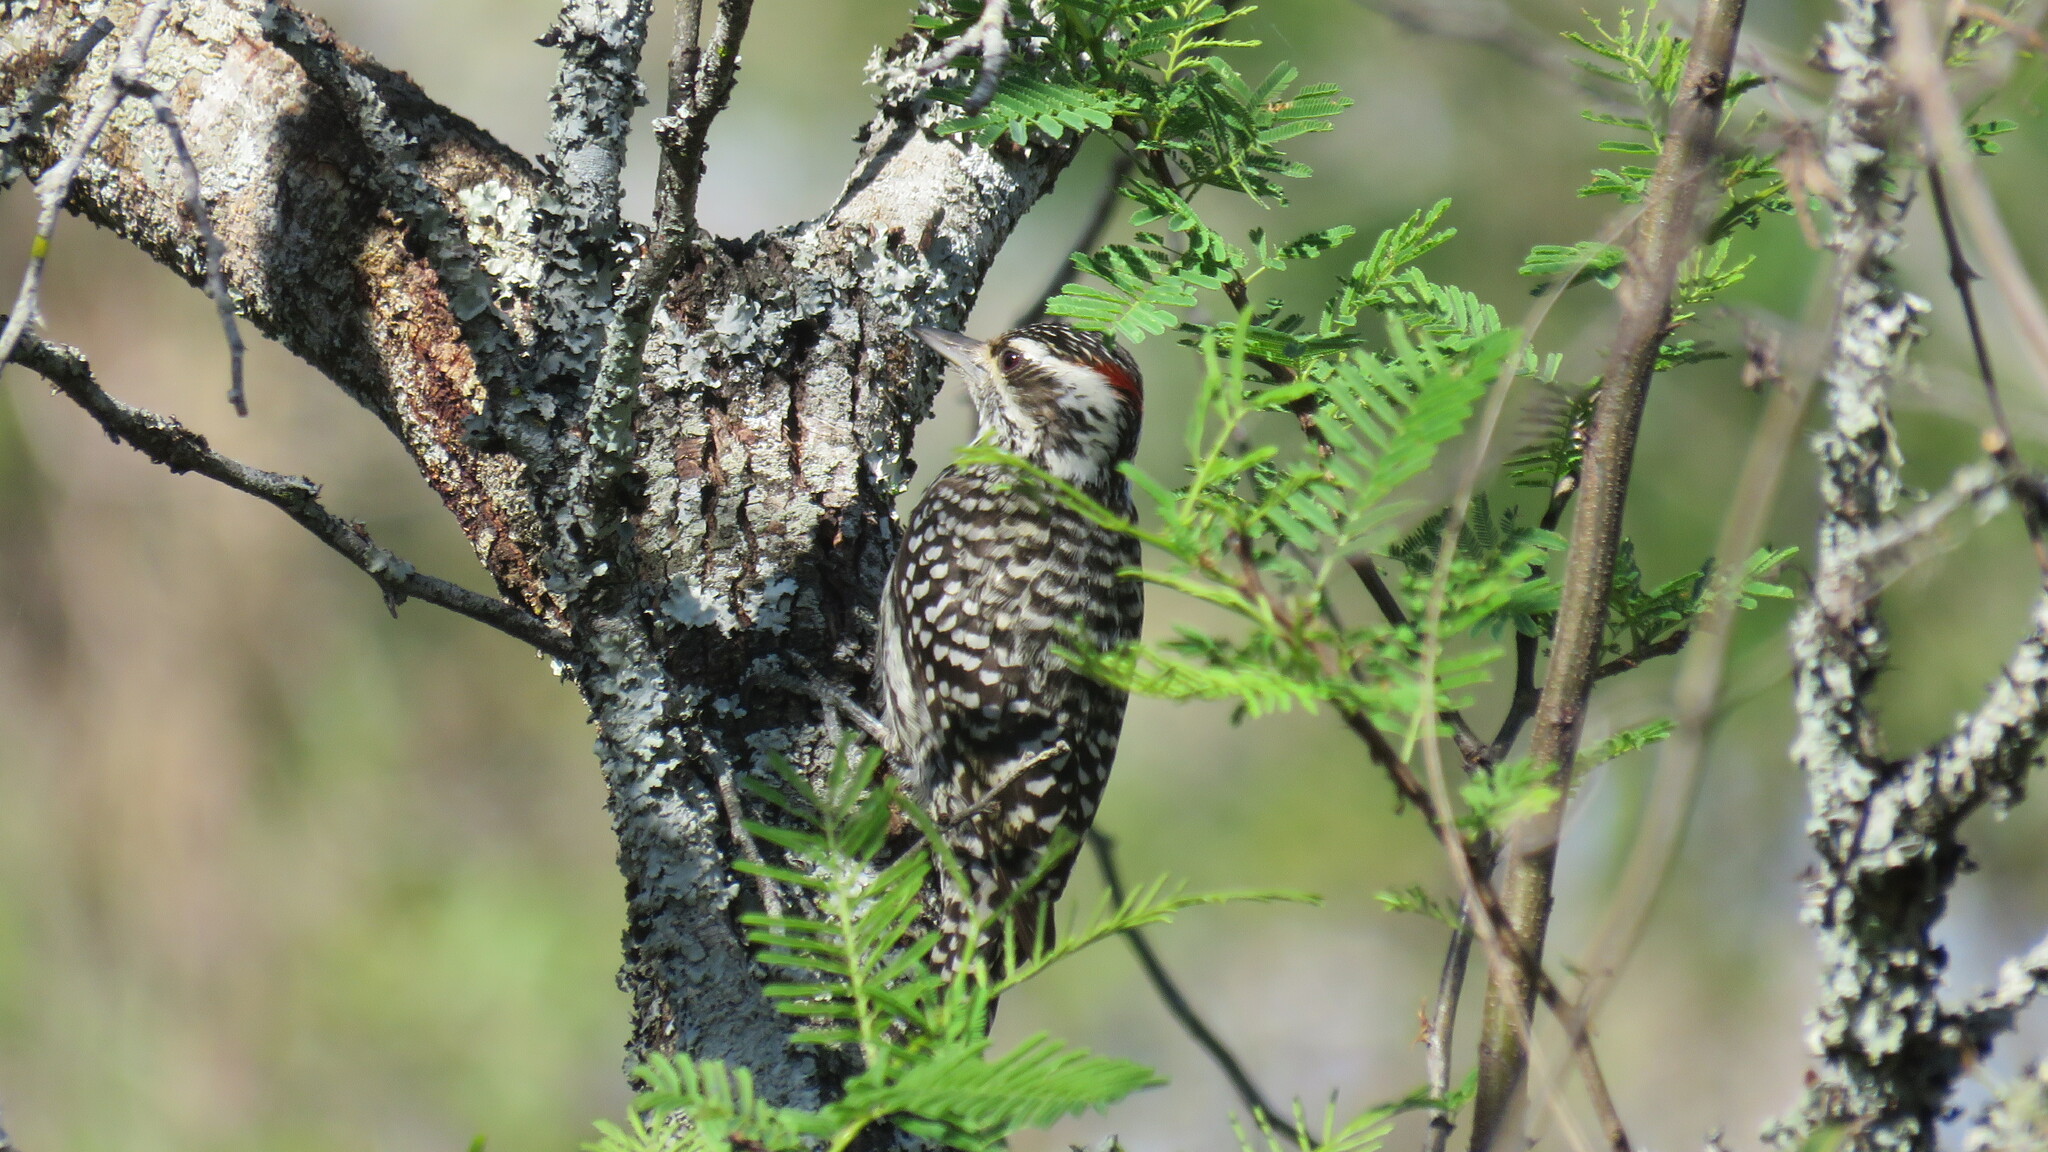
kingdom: Animalia
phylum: Chordata
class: Aves
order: Piciformes
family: Picidae
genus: Veniliornis
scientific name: Veniliornis mixtus
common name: Checkered woodpecker
